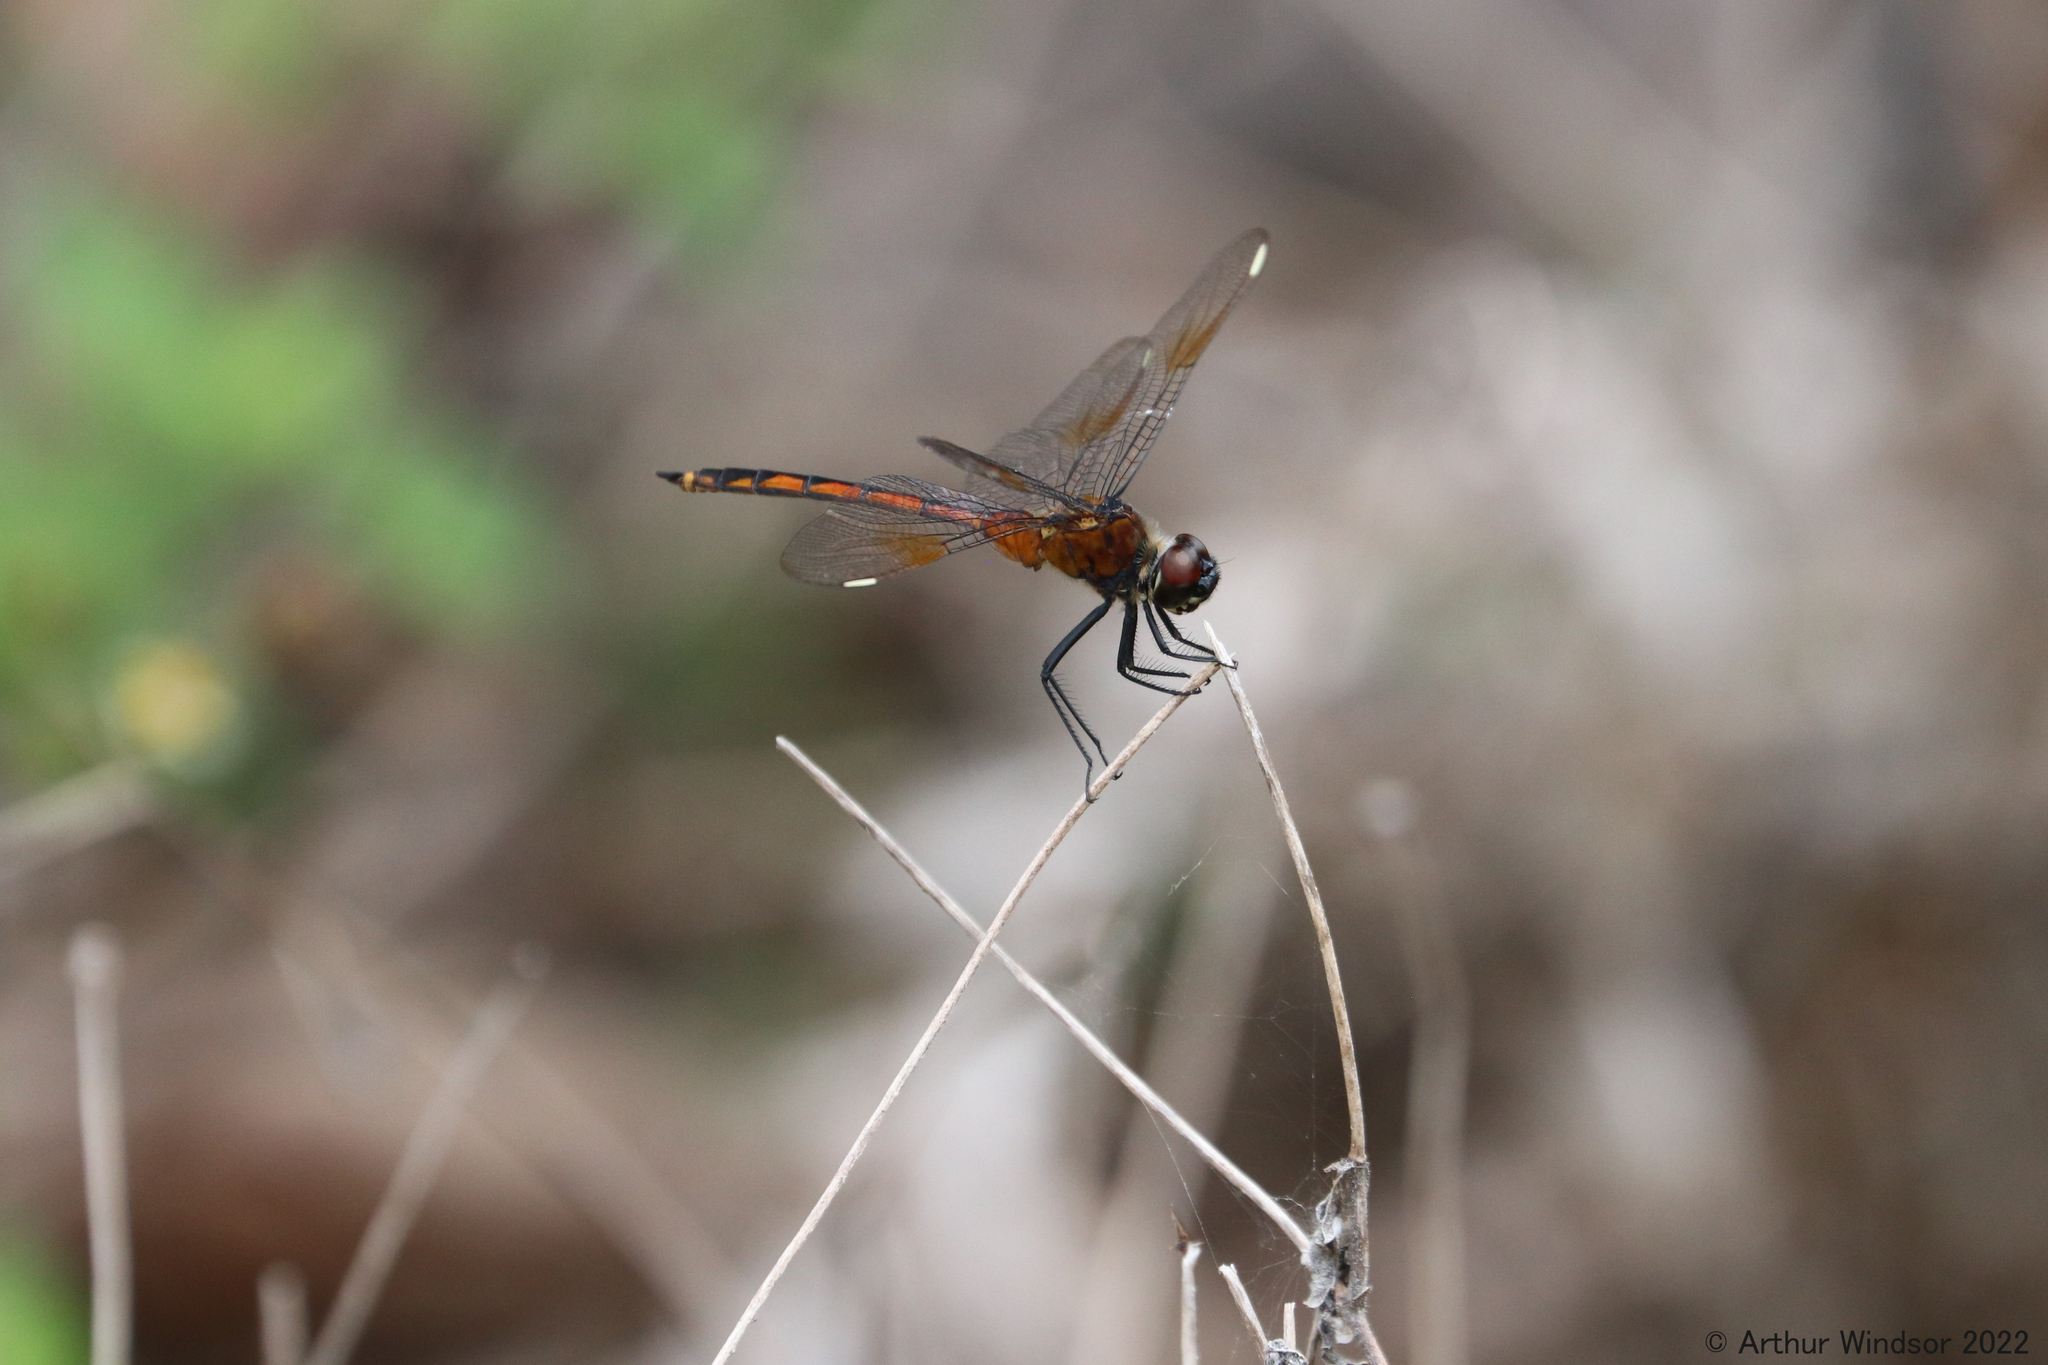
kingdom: Animalia
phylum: Arthropoda
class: Insecta
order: Odonata
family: Libellulidae
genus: Brachymesia
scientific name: Brachymesia gravida
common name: Four-spotted pennant
